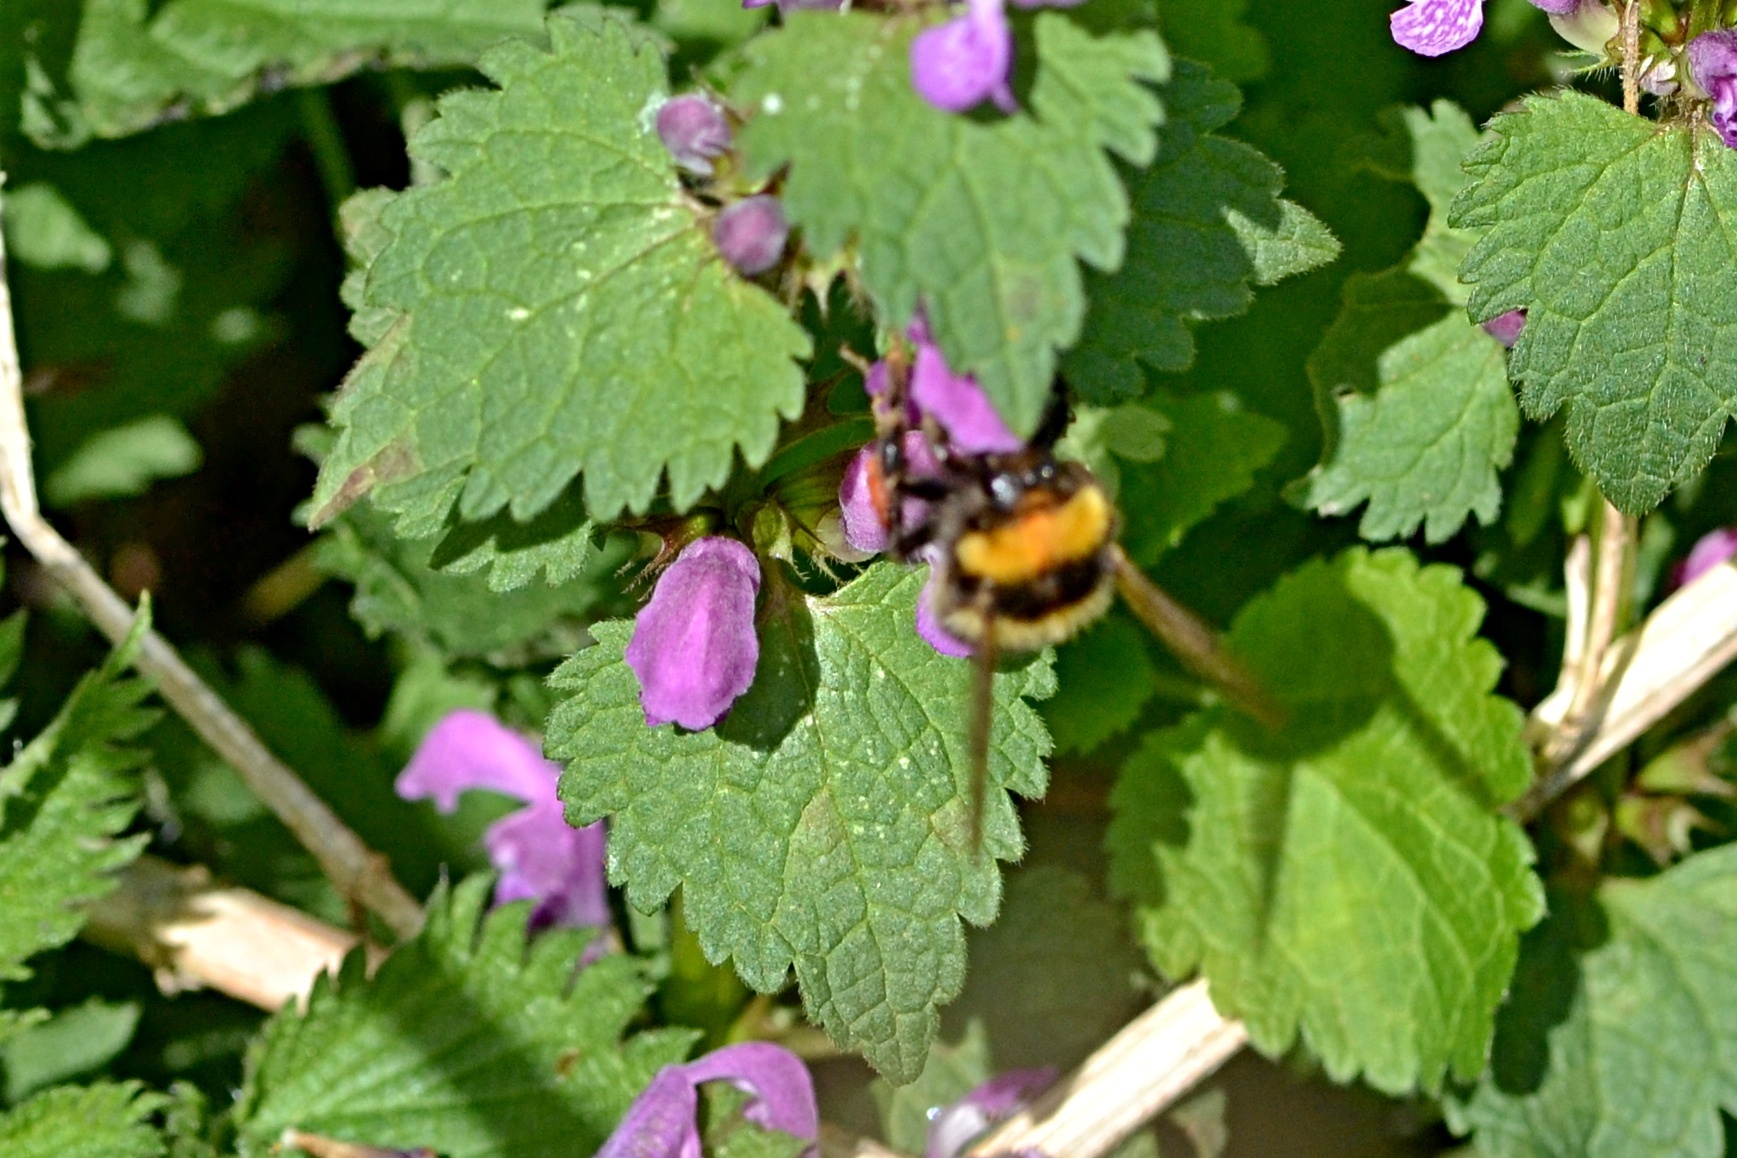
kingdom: Animalia
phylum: Arthropoda
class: Insecta
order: Hymenoptera
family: Apidae
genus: Bombus
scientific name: Bombus hortorum
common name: Garden bumblebee
